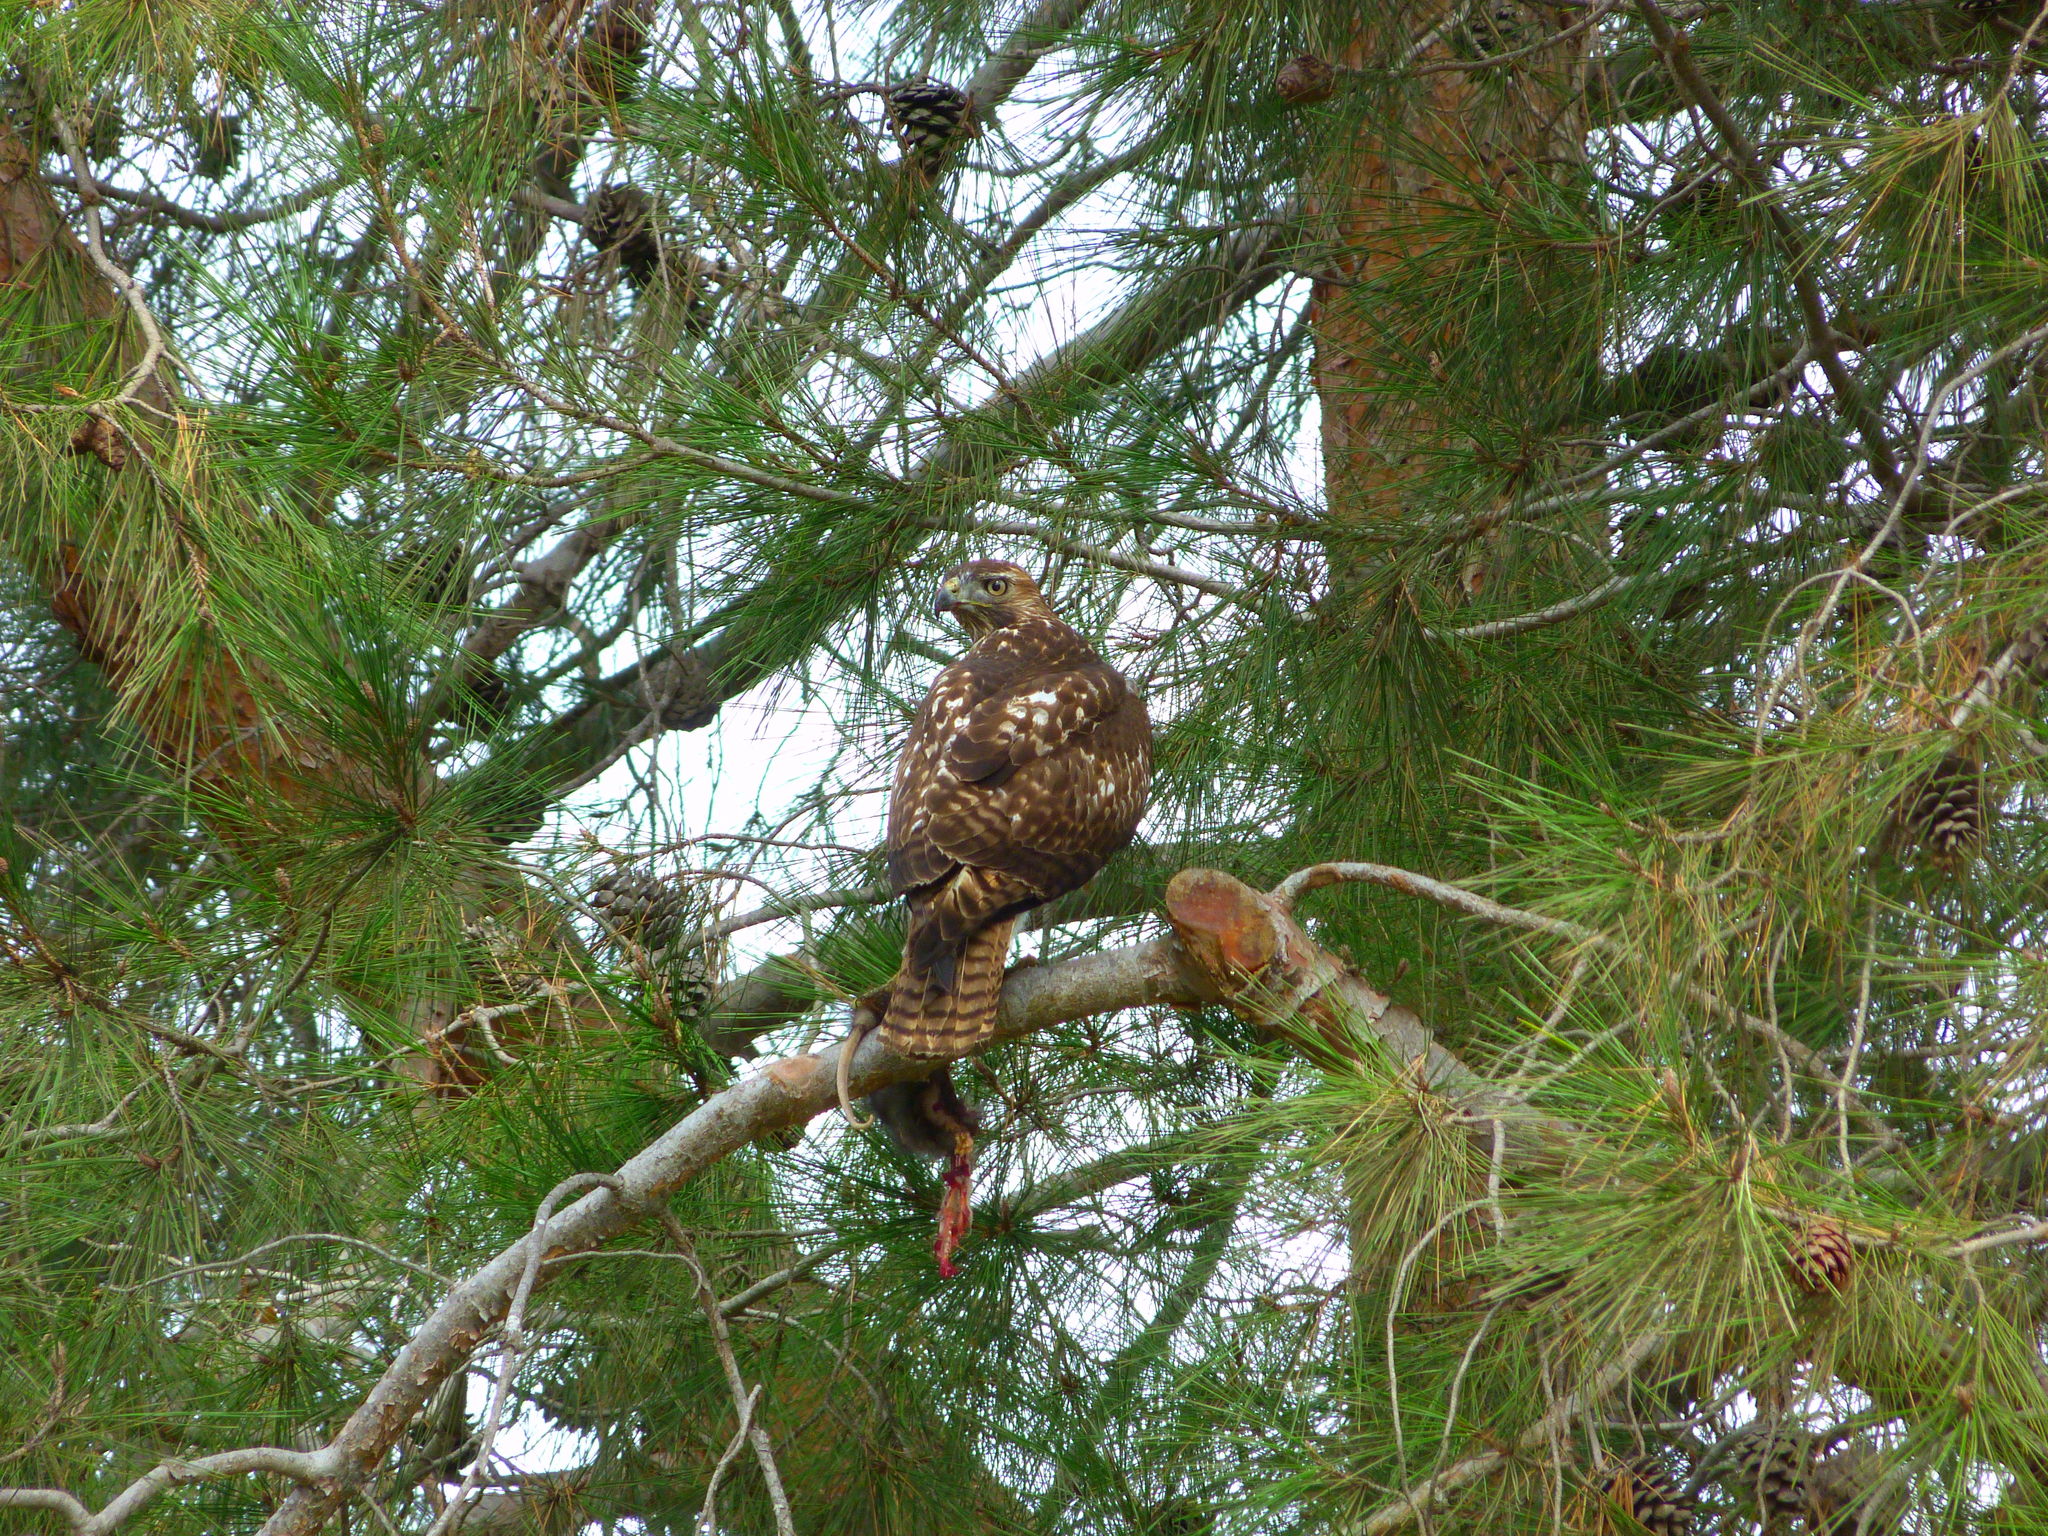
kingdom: Animalia
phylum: Chordata
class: Aves
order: Accipitriformes
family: Accipitridae
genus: Buteo
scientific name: Buteo jamaicensis
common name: Red-tailed hawk
